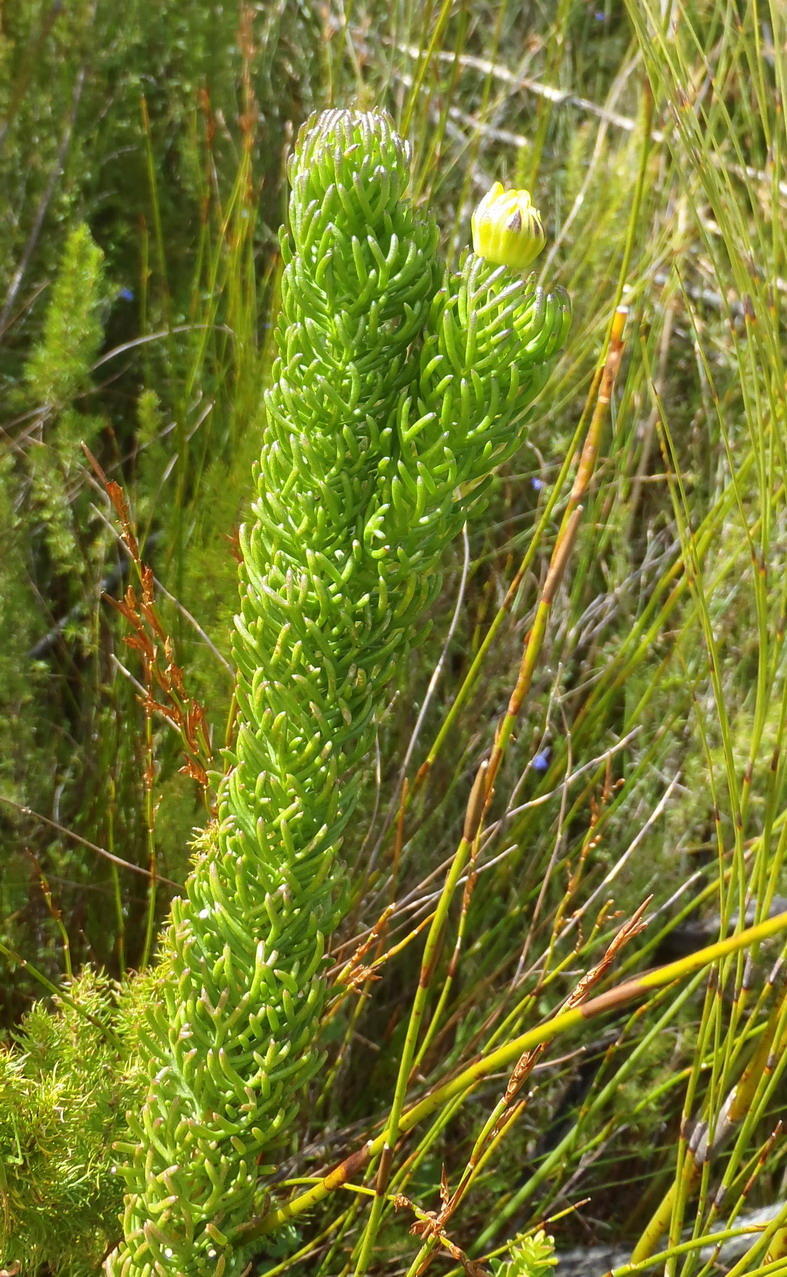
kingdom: Plantae
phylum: Tracheophyta
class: Magnoliopsida
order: Asterales
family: Asteraceae
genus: Euryops
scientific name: Euryops pinnatipartitus
